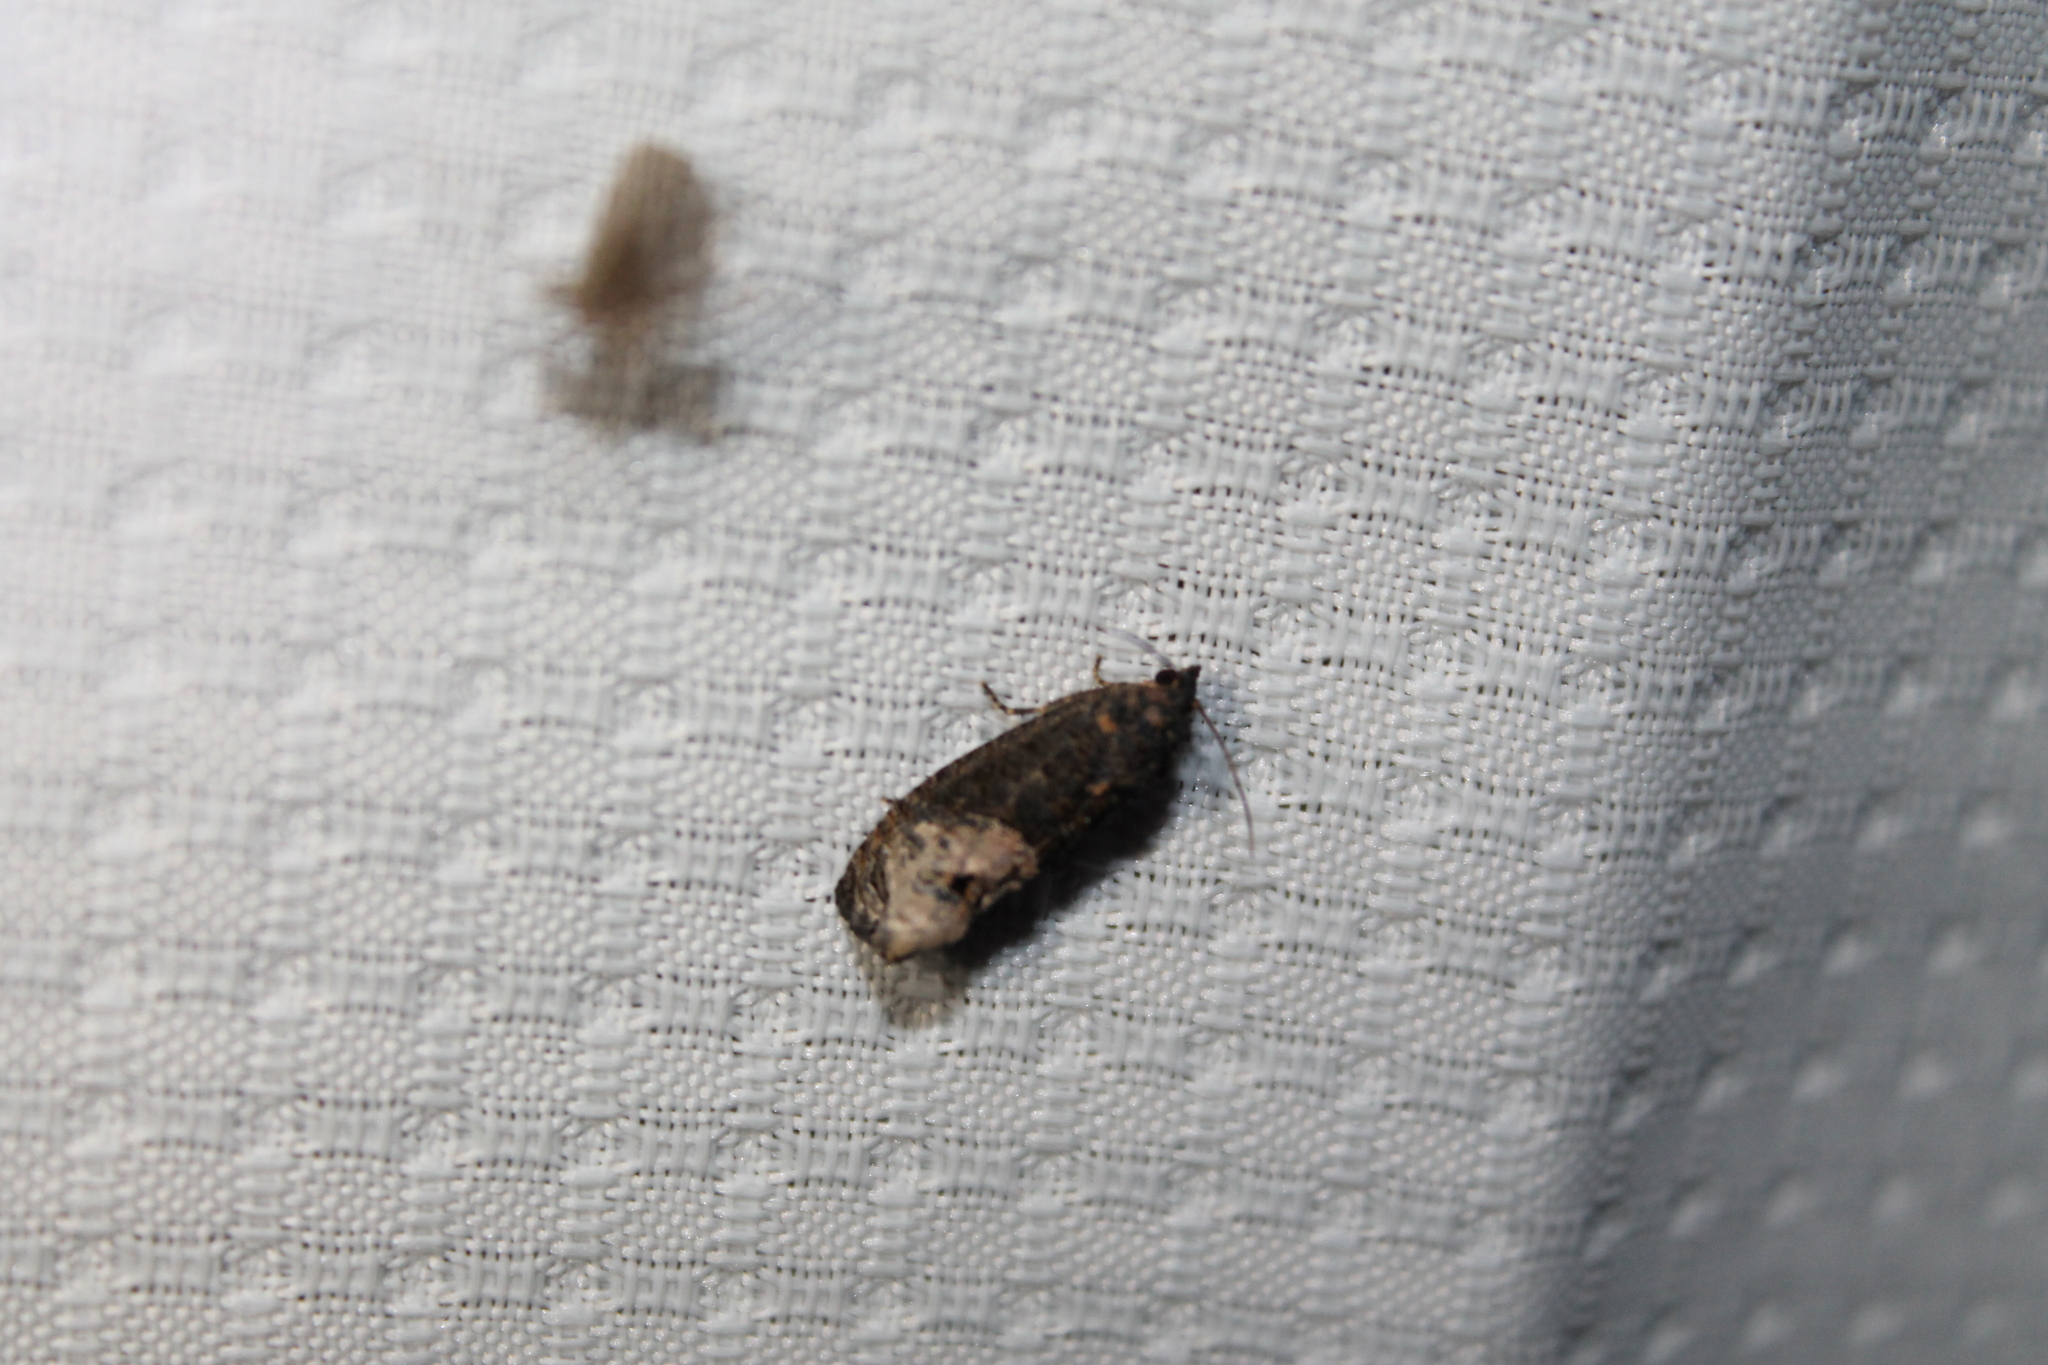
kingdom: Animalia
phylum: Arthropoda
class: Insecta
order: Lepidoptera
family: Tortricidae
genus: Ecdytolopha
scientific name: Ecdytolopha insiticiana
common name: Locust twig borer moth
